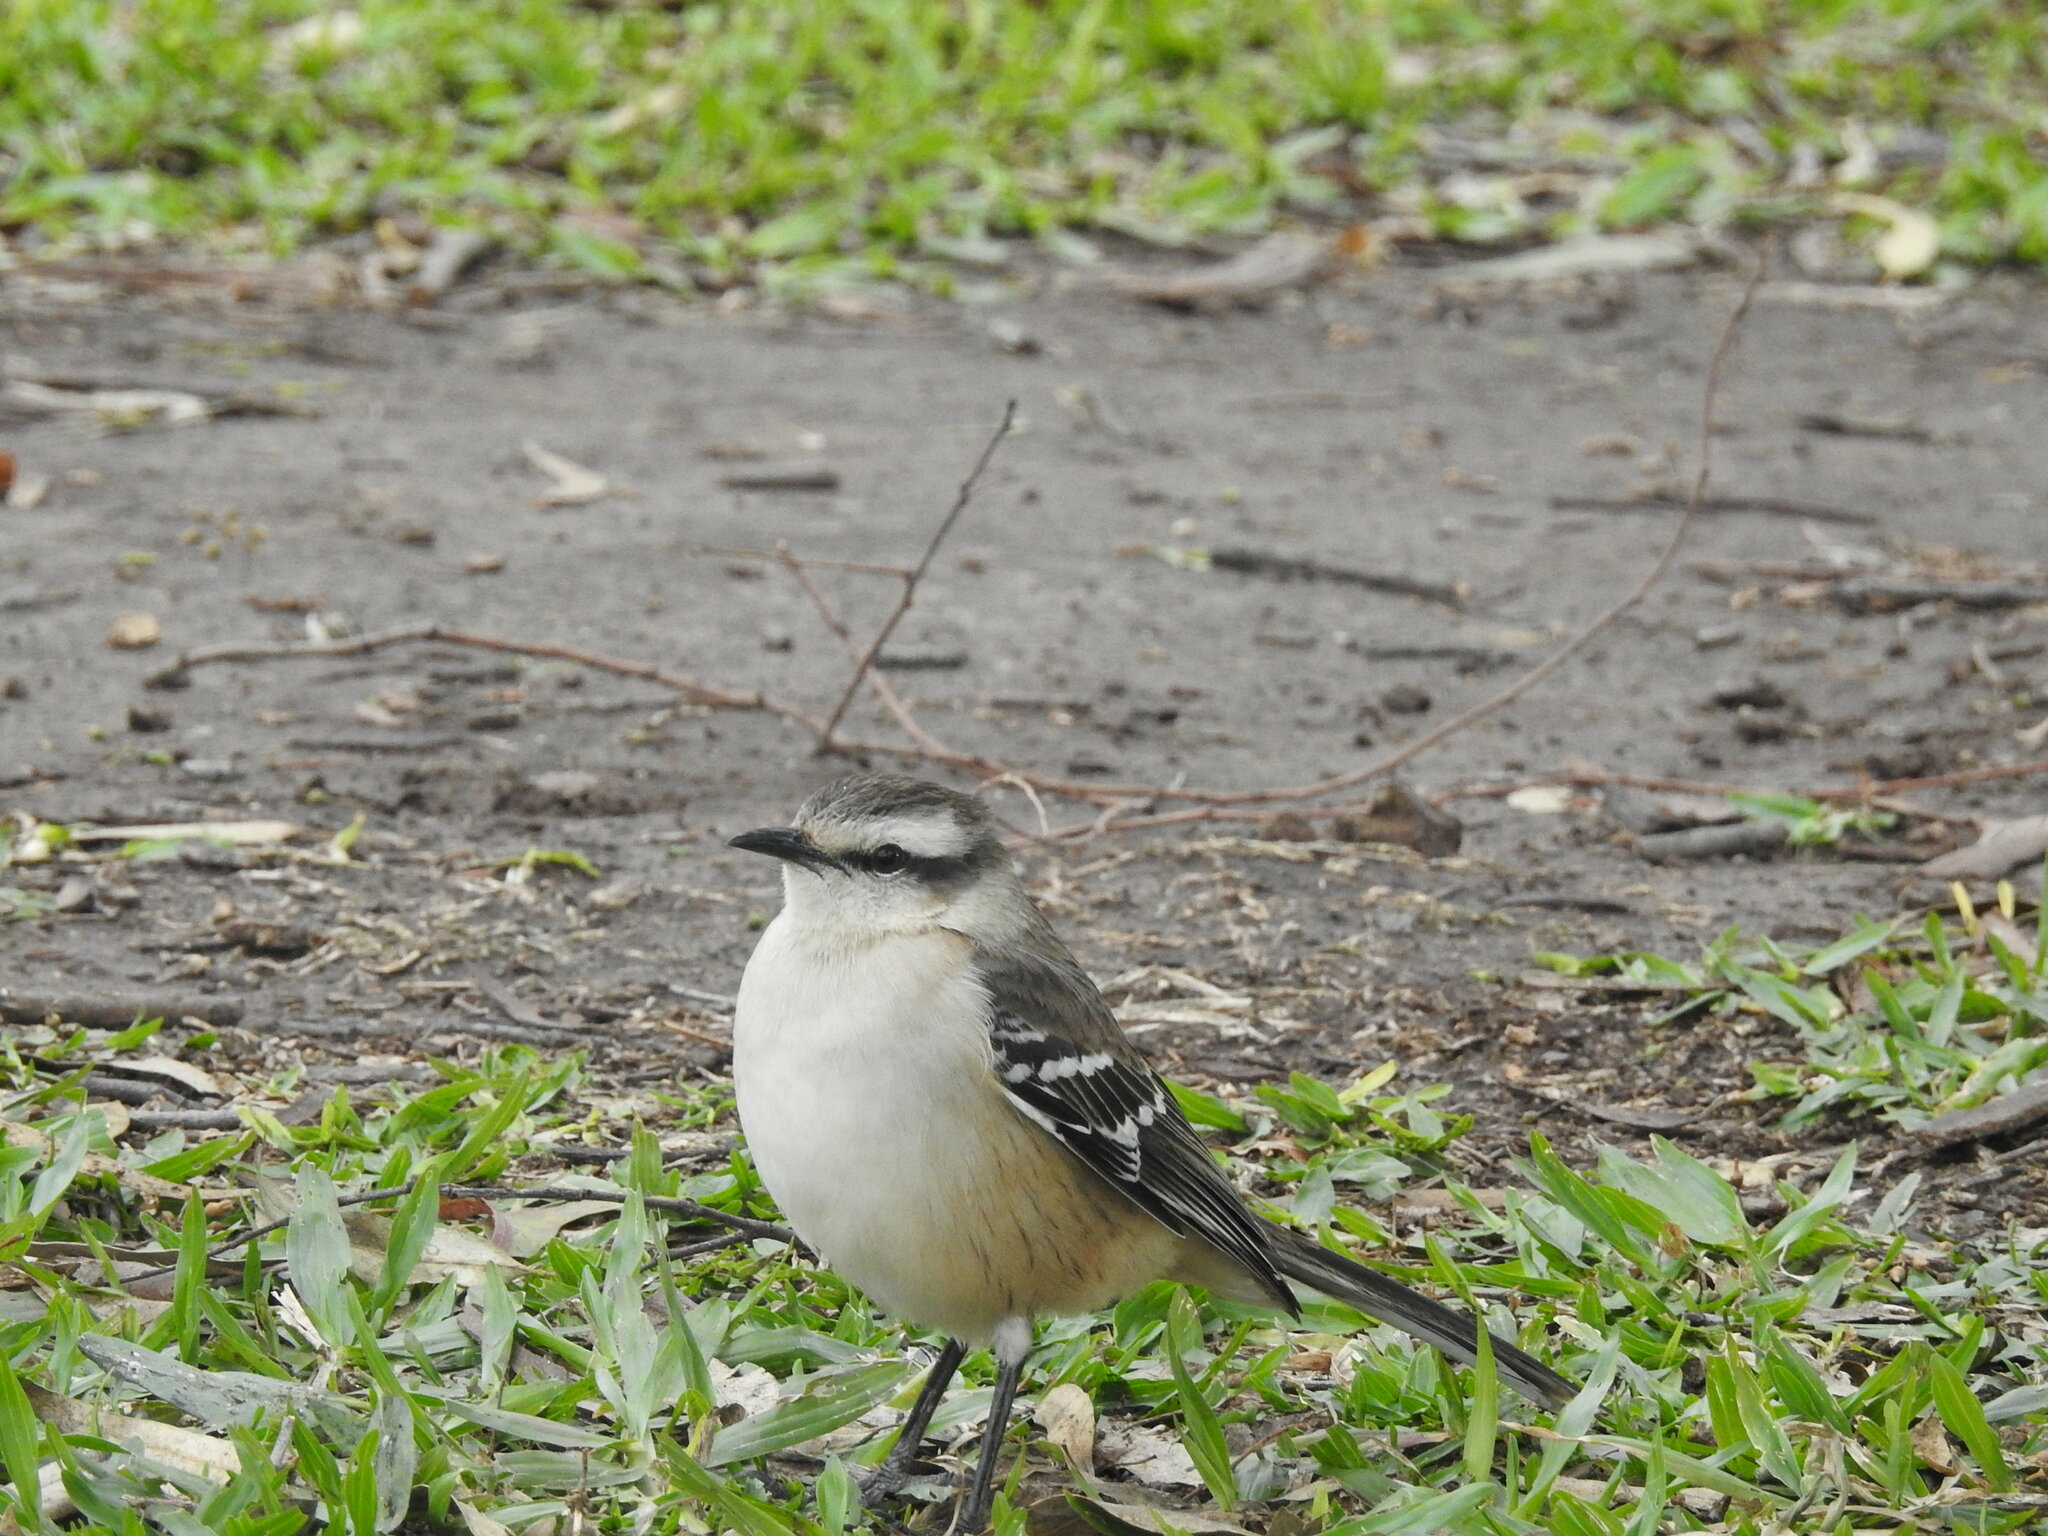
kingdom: Animalia
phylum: Chordata
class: Aves
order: Passeriformes
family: Mimidae
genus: Mimus
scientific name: Mimus saturninus
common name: Chalk-browed mockingbird
